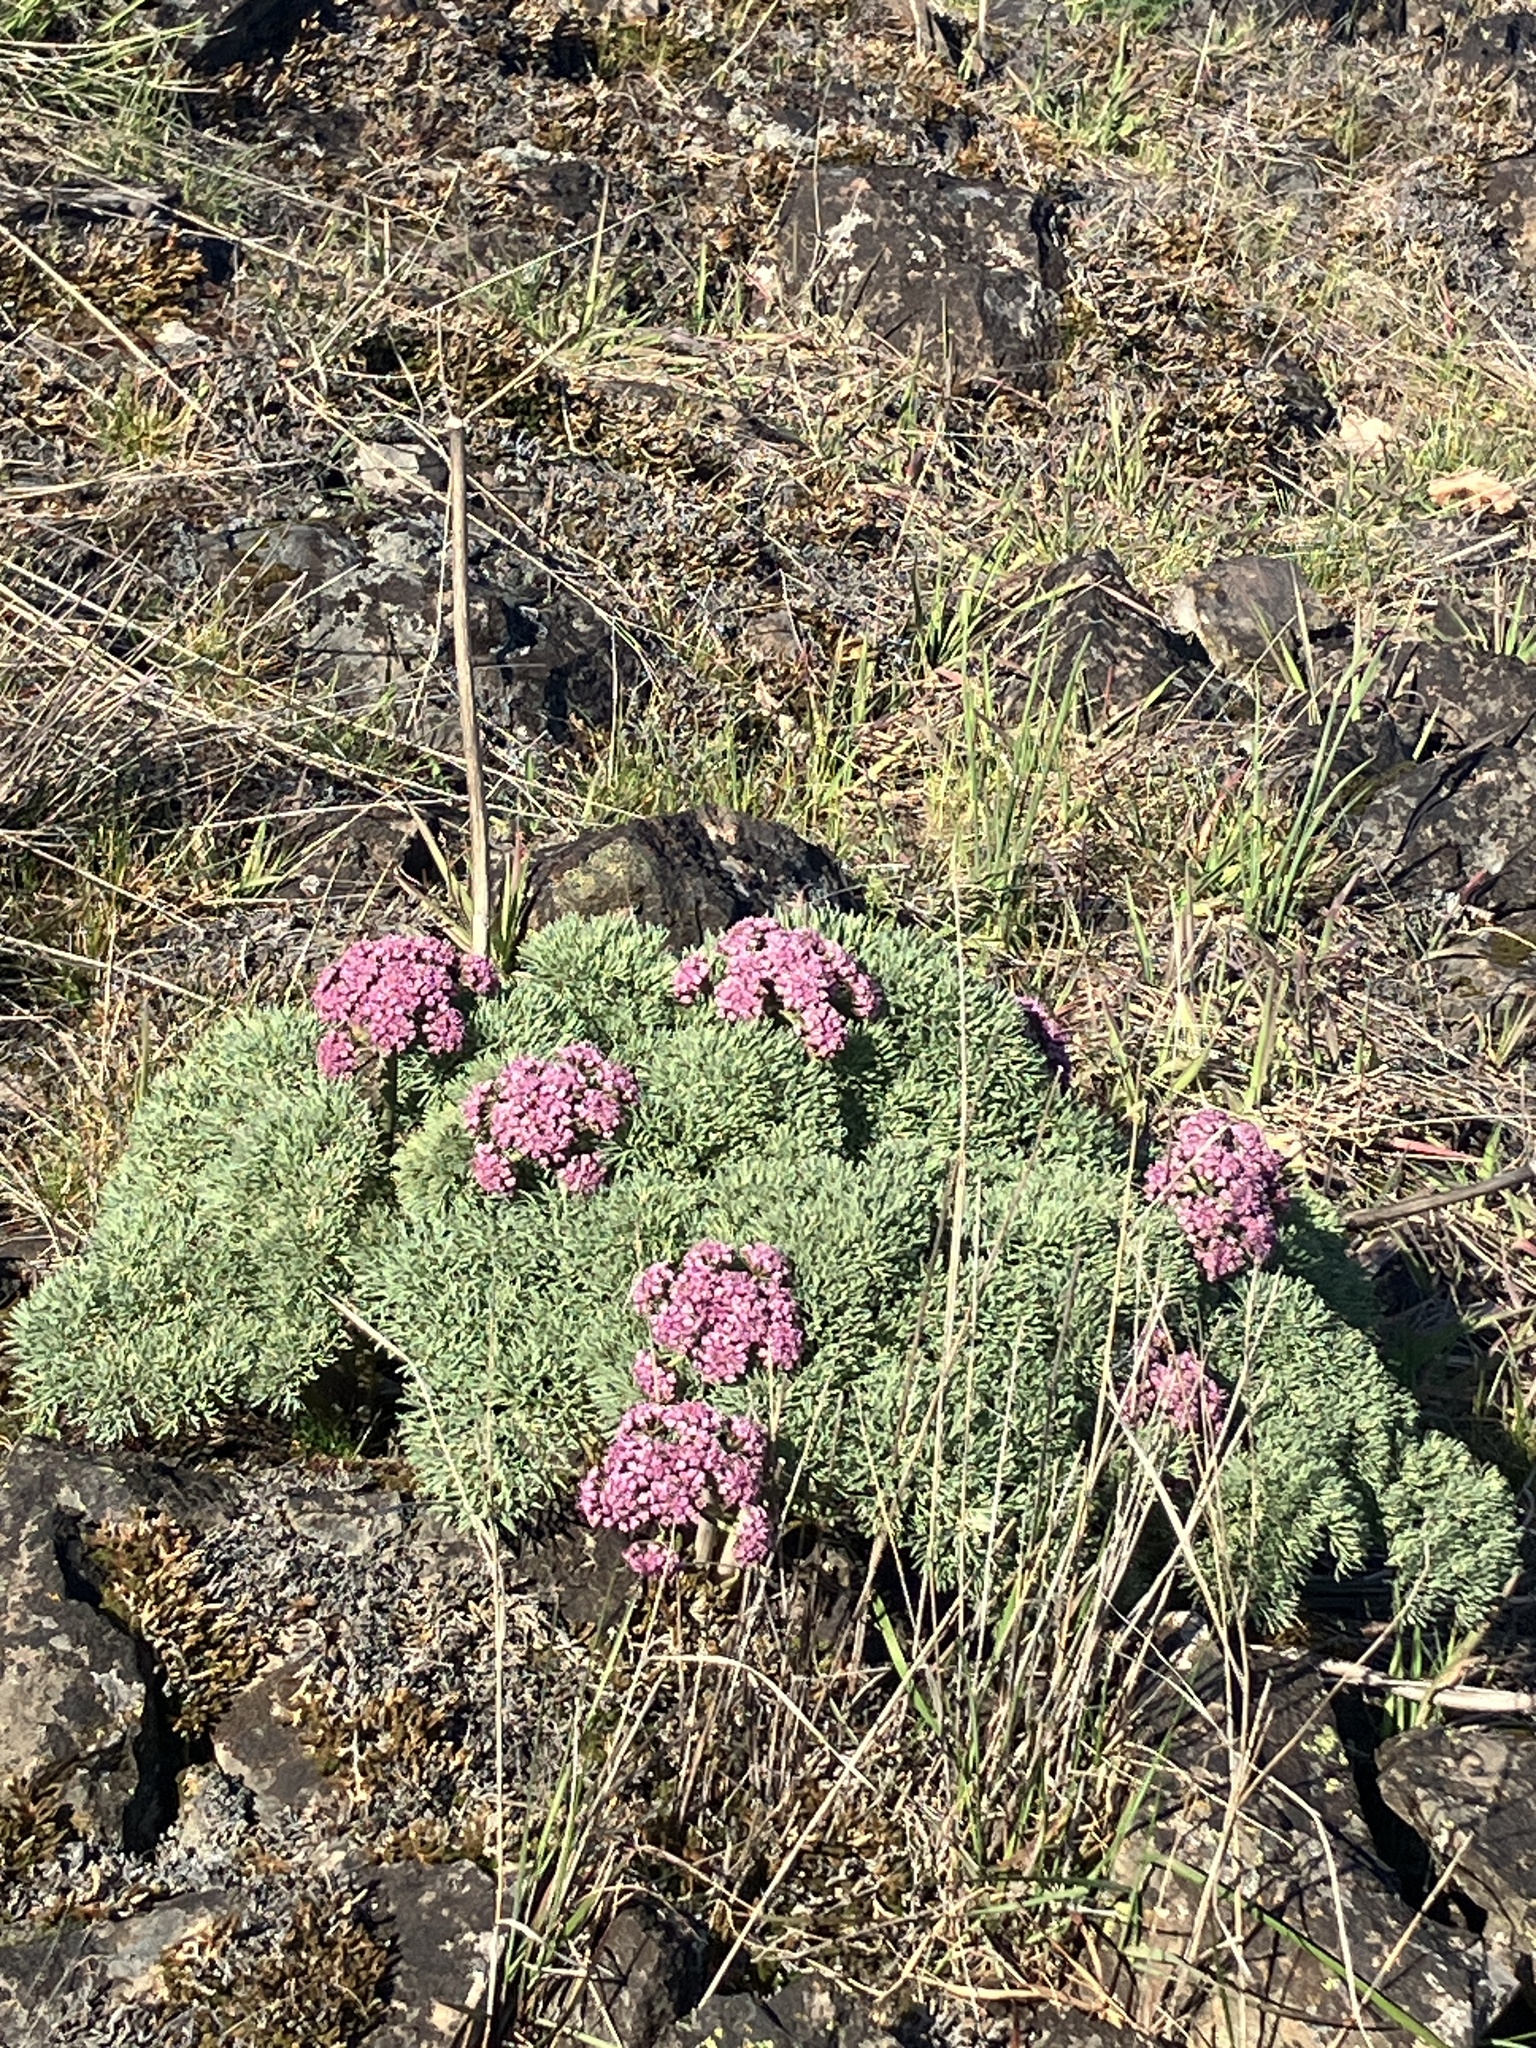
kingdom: Plantae
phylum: Tracheophyta
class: Magnoliopsida
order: Apiales
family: Apiaceae
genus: Lomatium
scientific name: Lomatium columbianum
